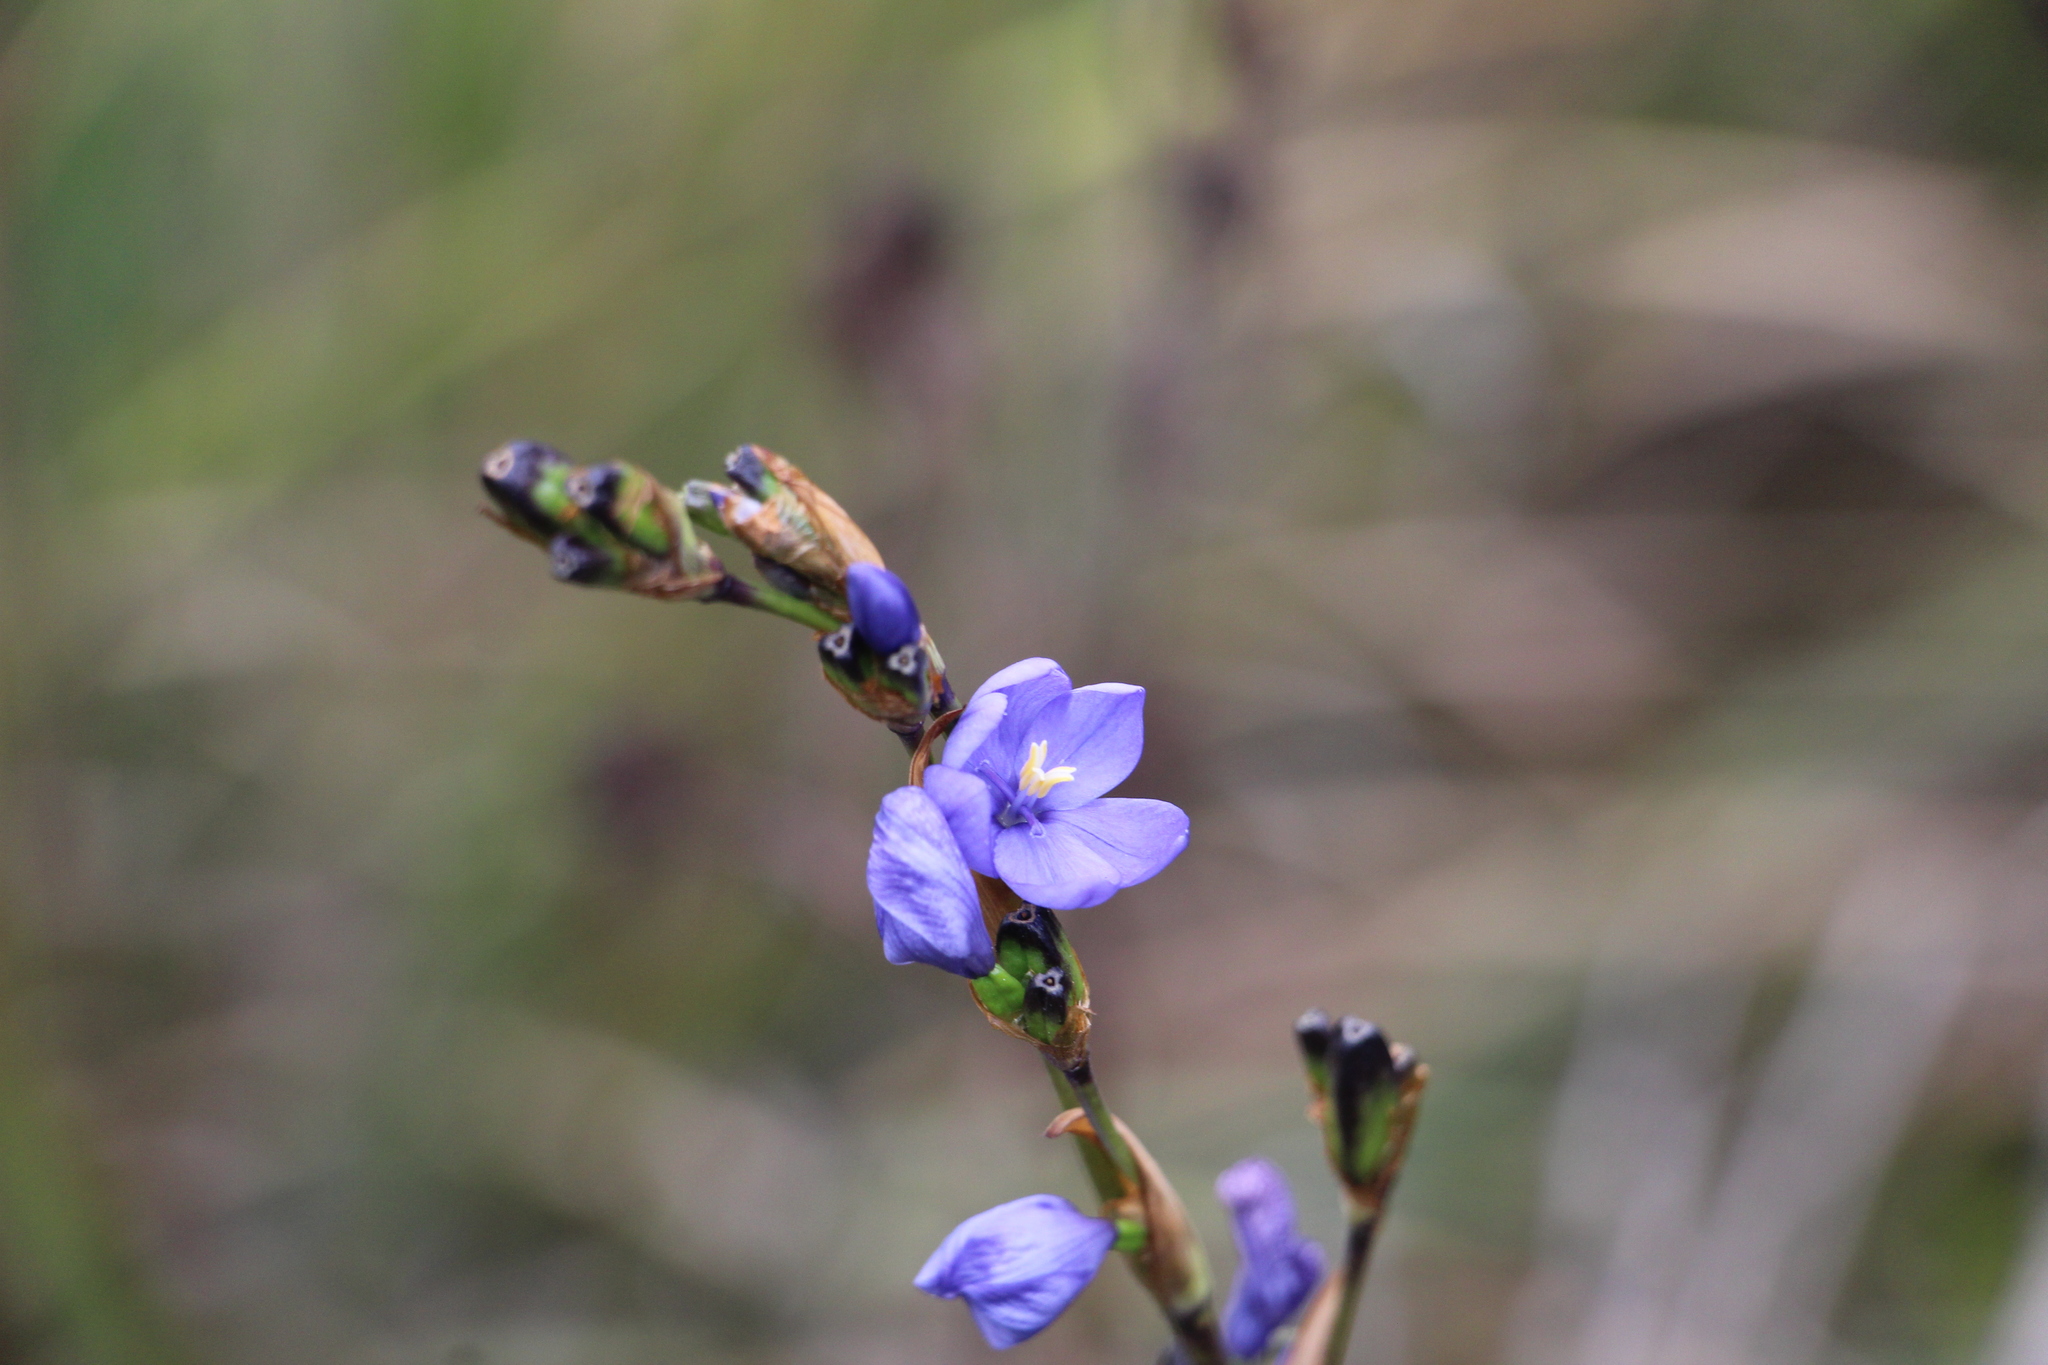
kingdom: Plantae
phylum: Tracheophyta
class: Liliopsida
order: Asparagales
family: Iridaceae
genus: Orthrosanthus
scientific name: Orthrosanthus chimboracensis
